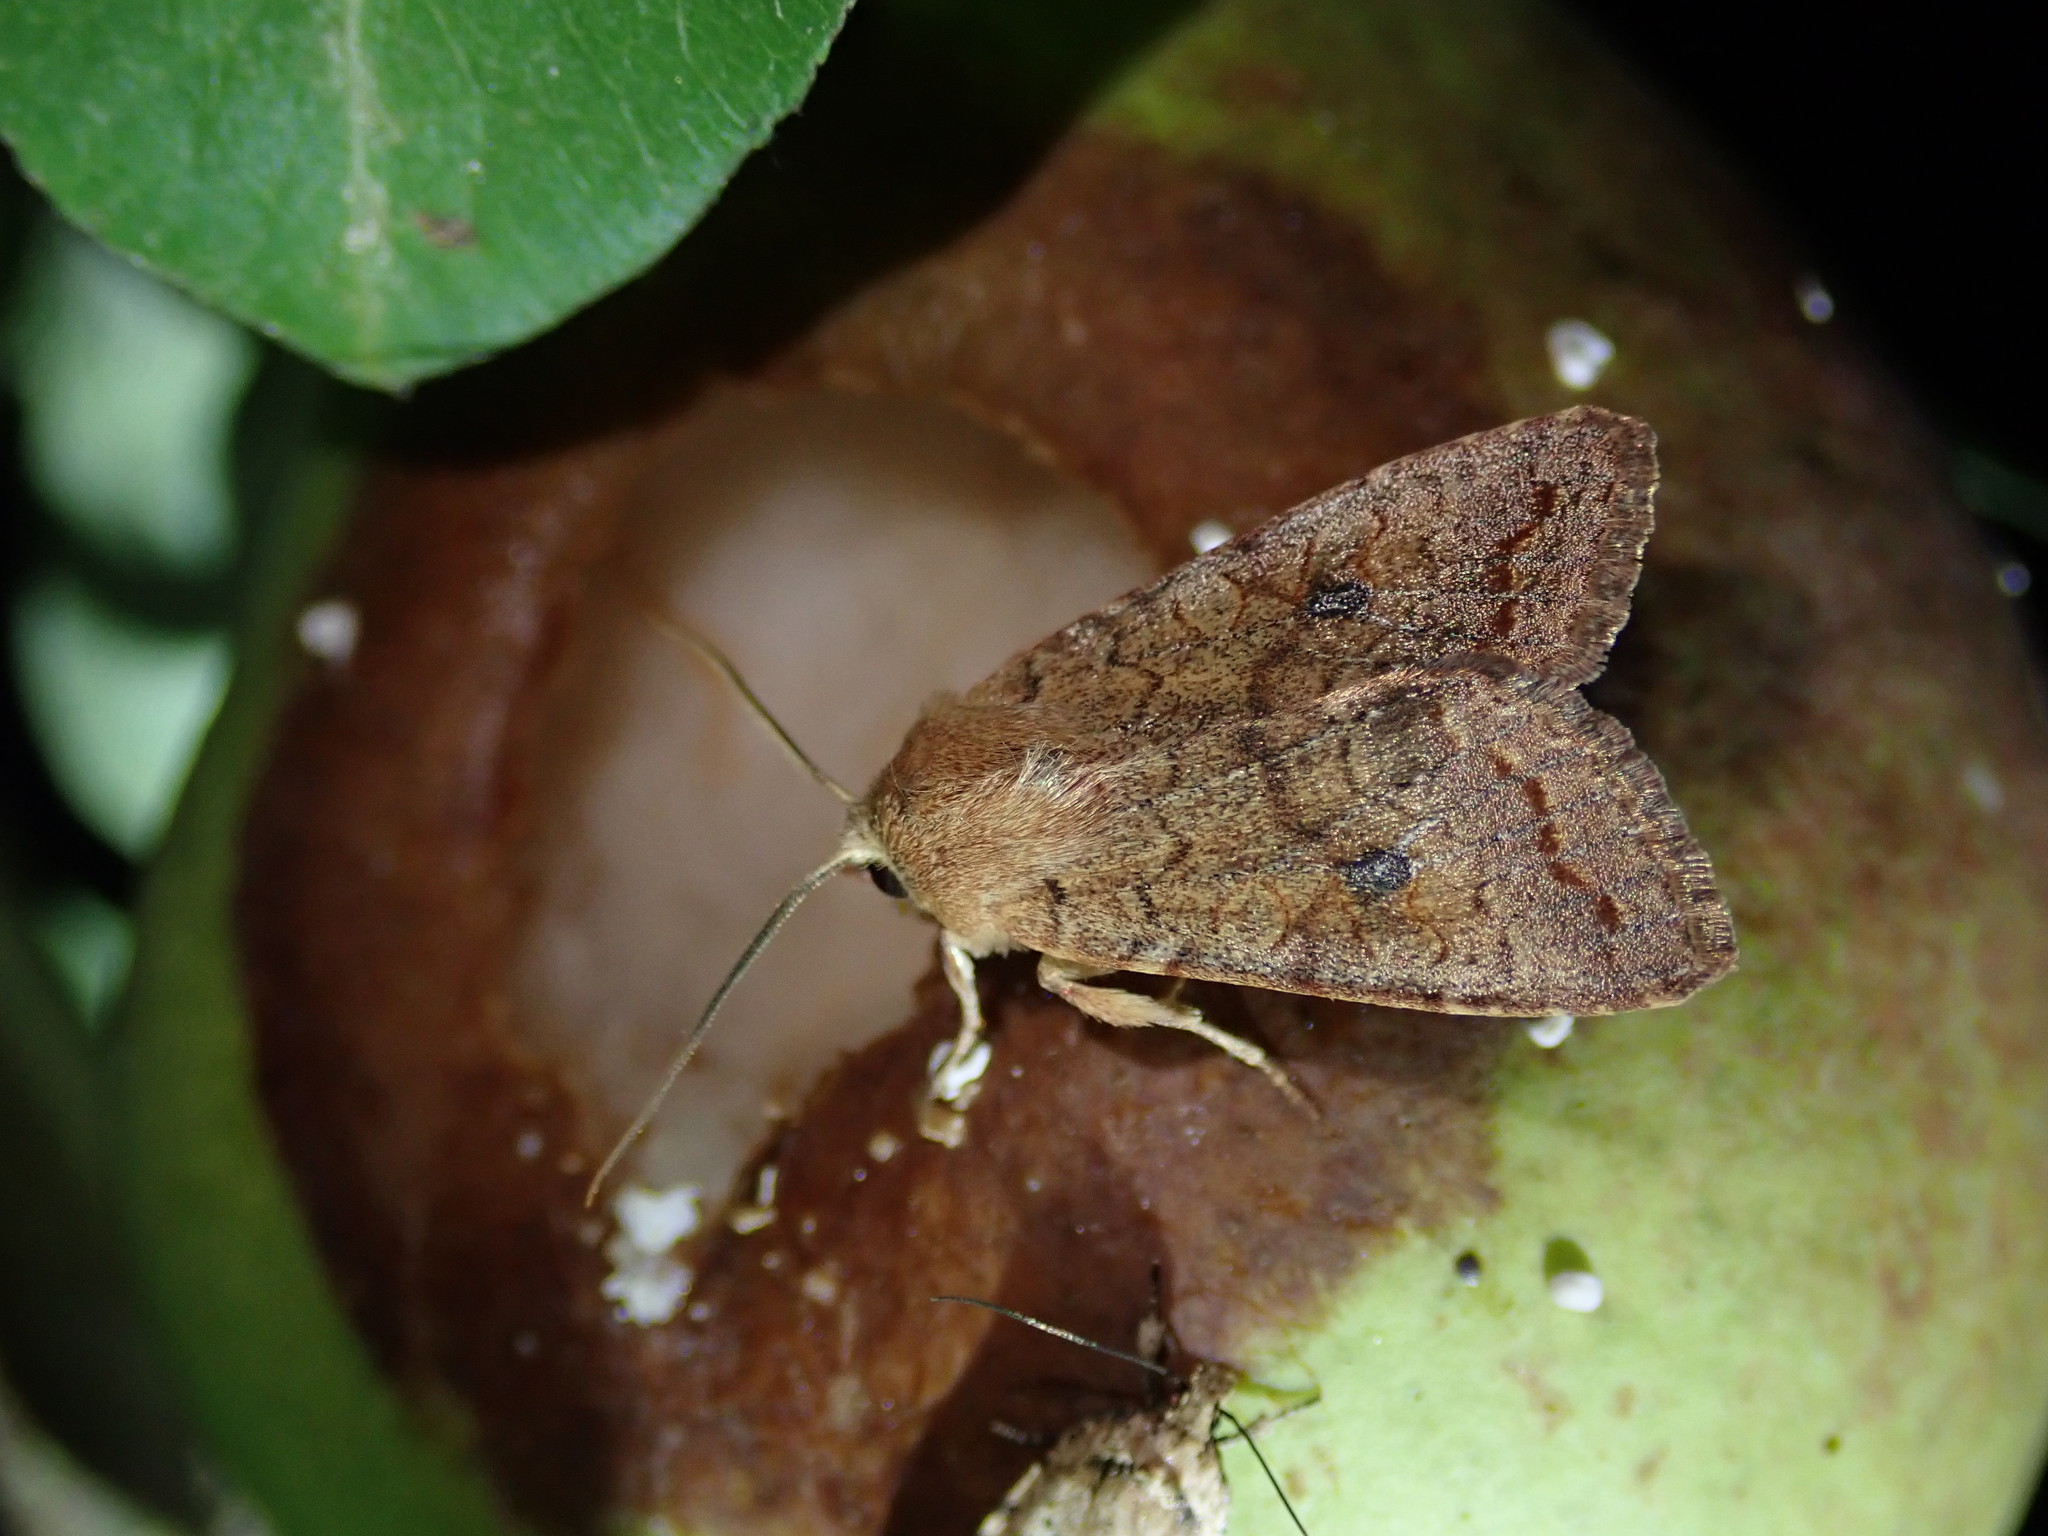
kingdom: Animalia
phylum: Arthropoda
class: Insecta
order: Lepidoptera
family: Noctuidae
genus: Sunira
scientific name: Sunira circellaris
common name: Brick
